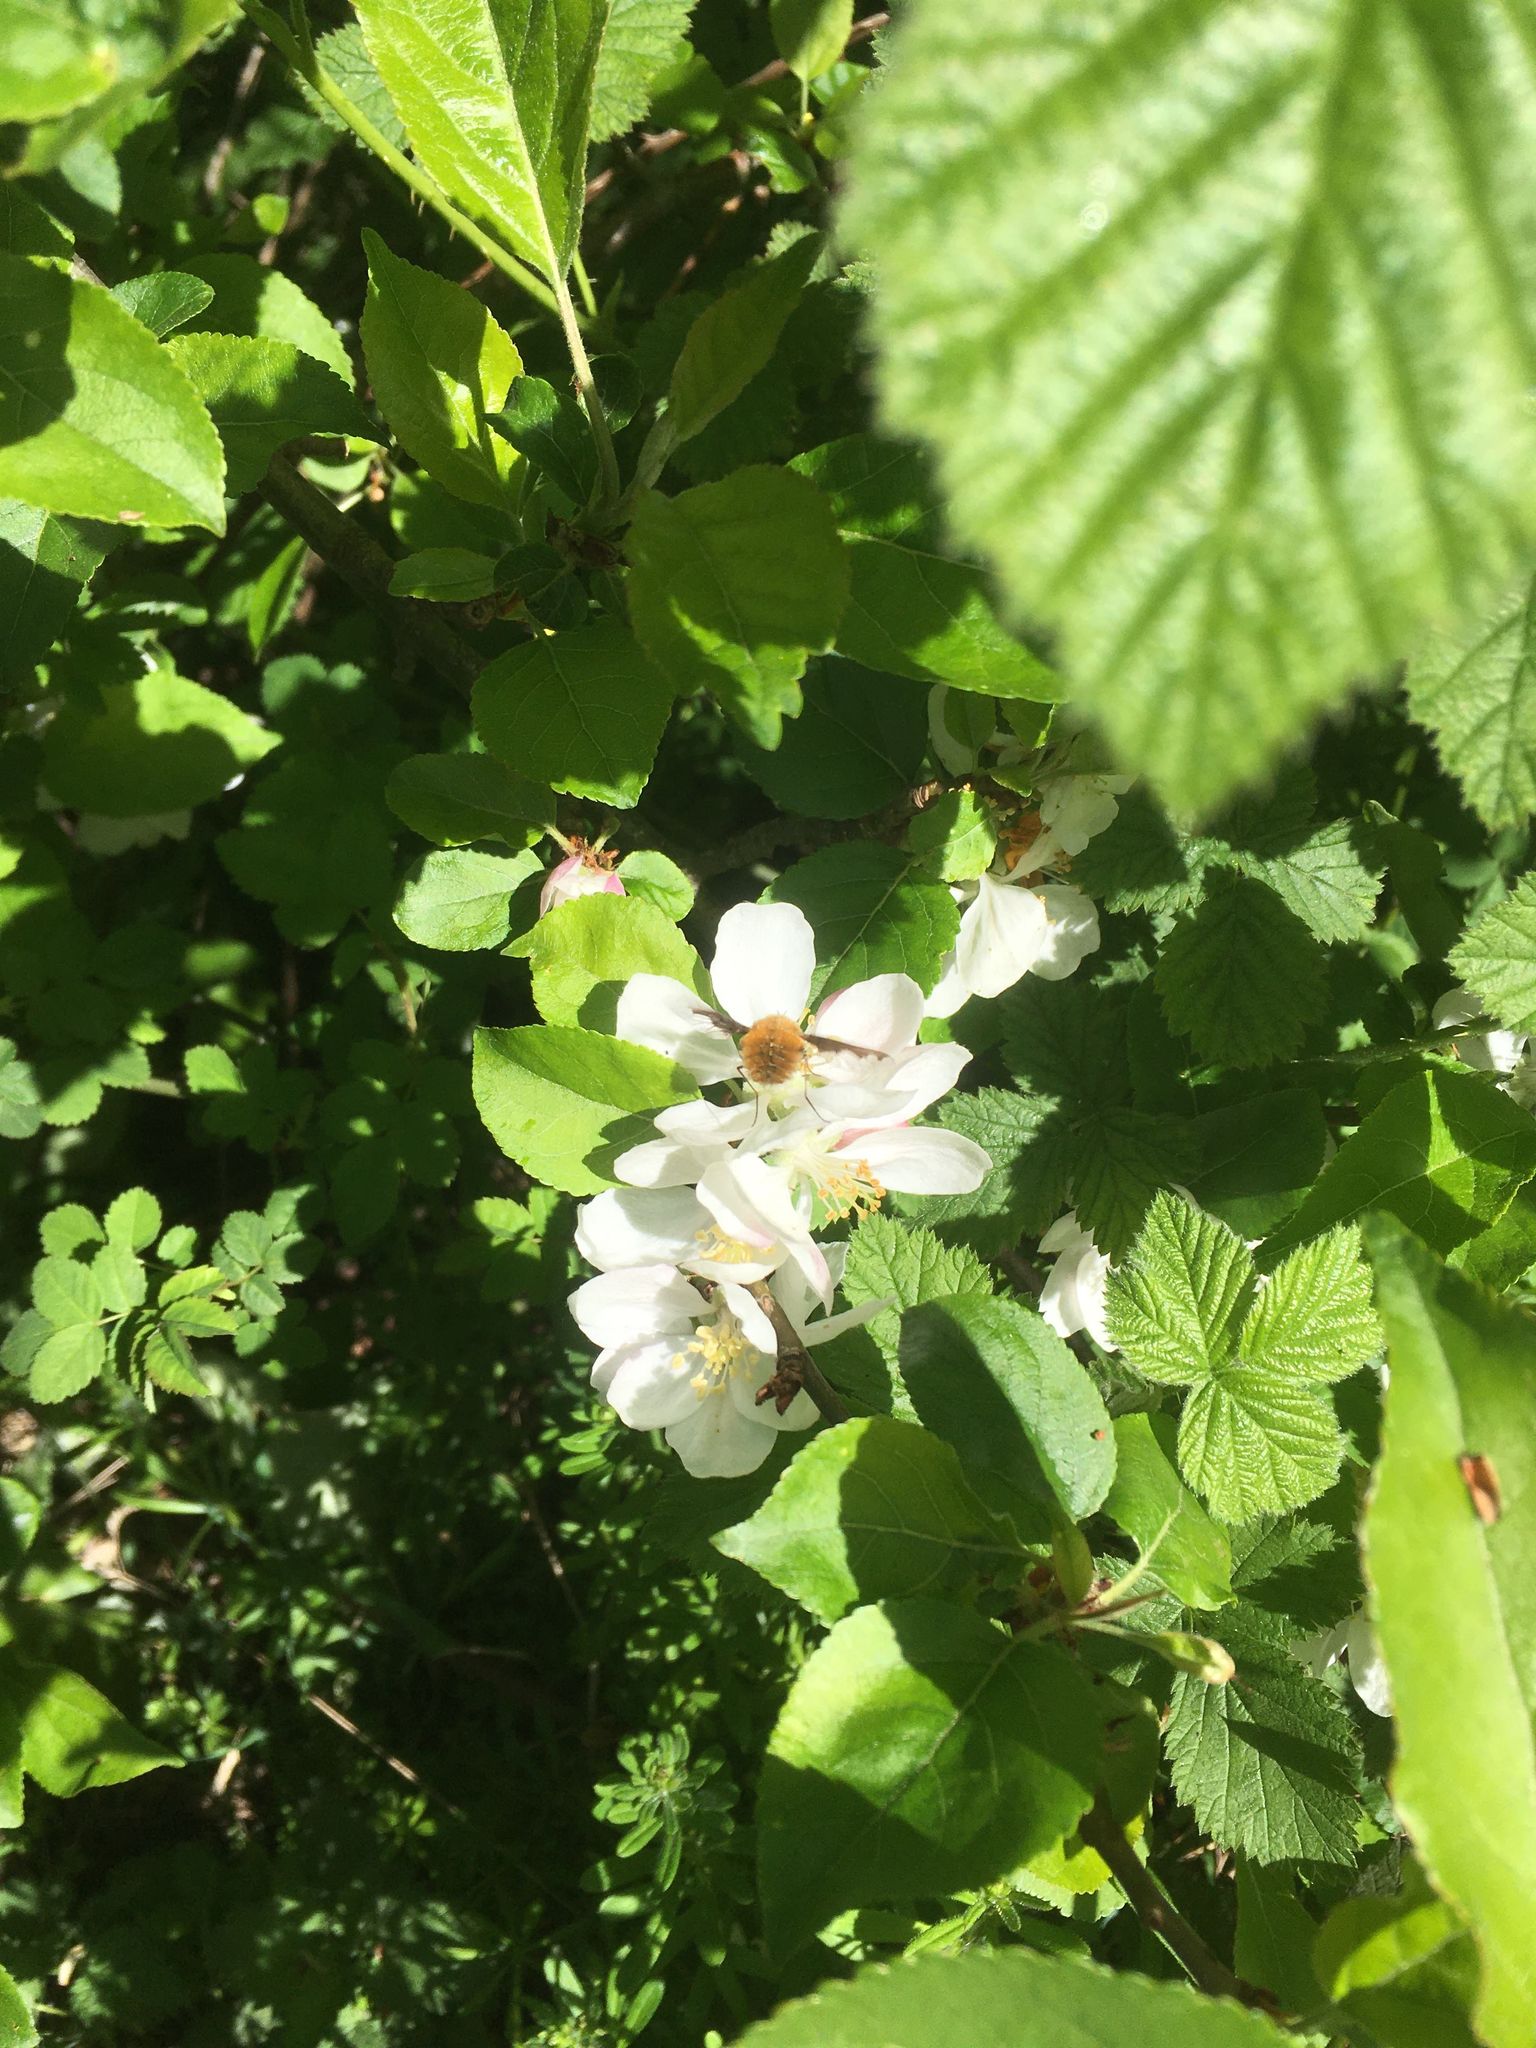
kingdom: Animalia
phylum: Arthropoda
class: Insecta
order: Diptera
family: Bombyliidae
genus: Bombylius
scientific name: Bombylius major
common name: Bee fly
